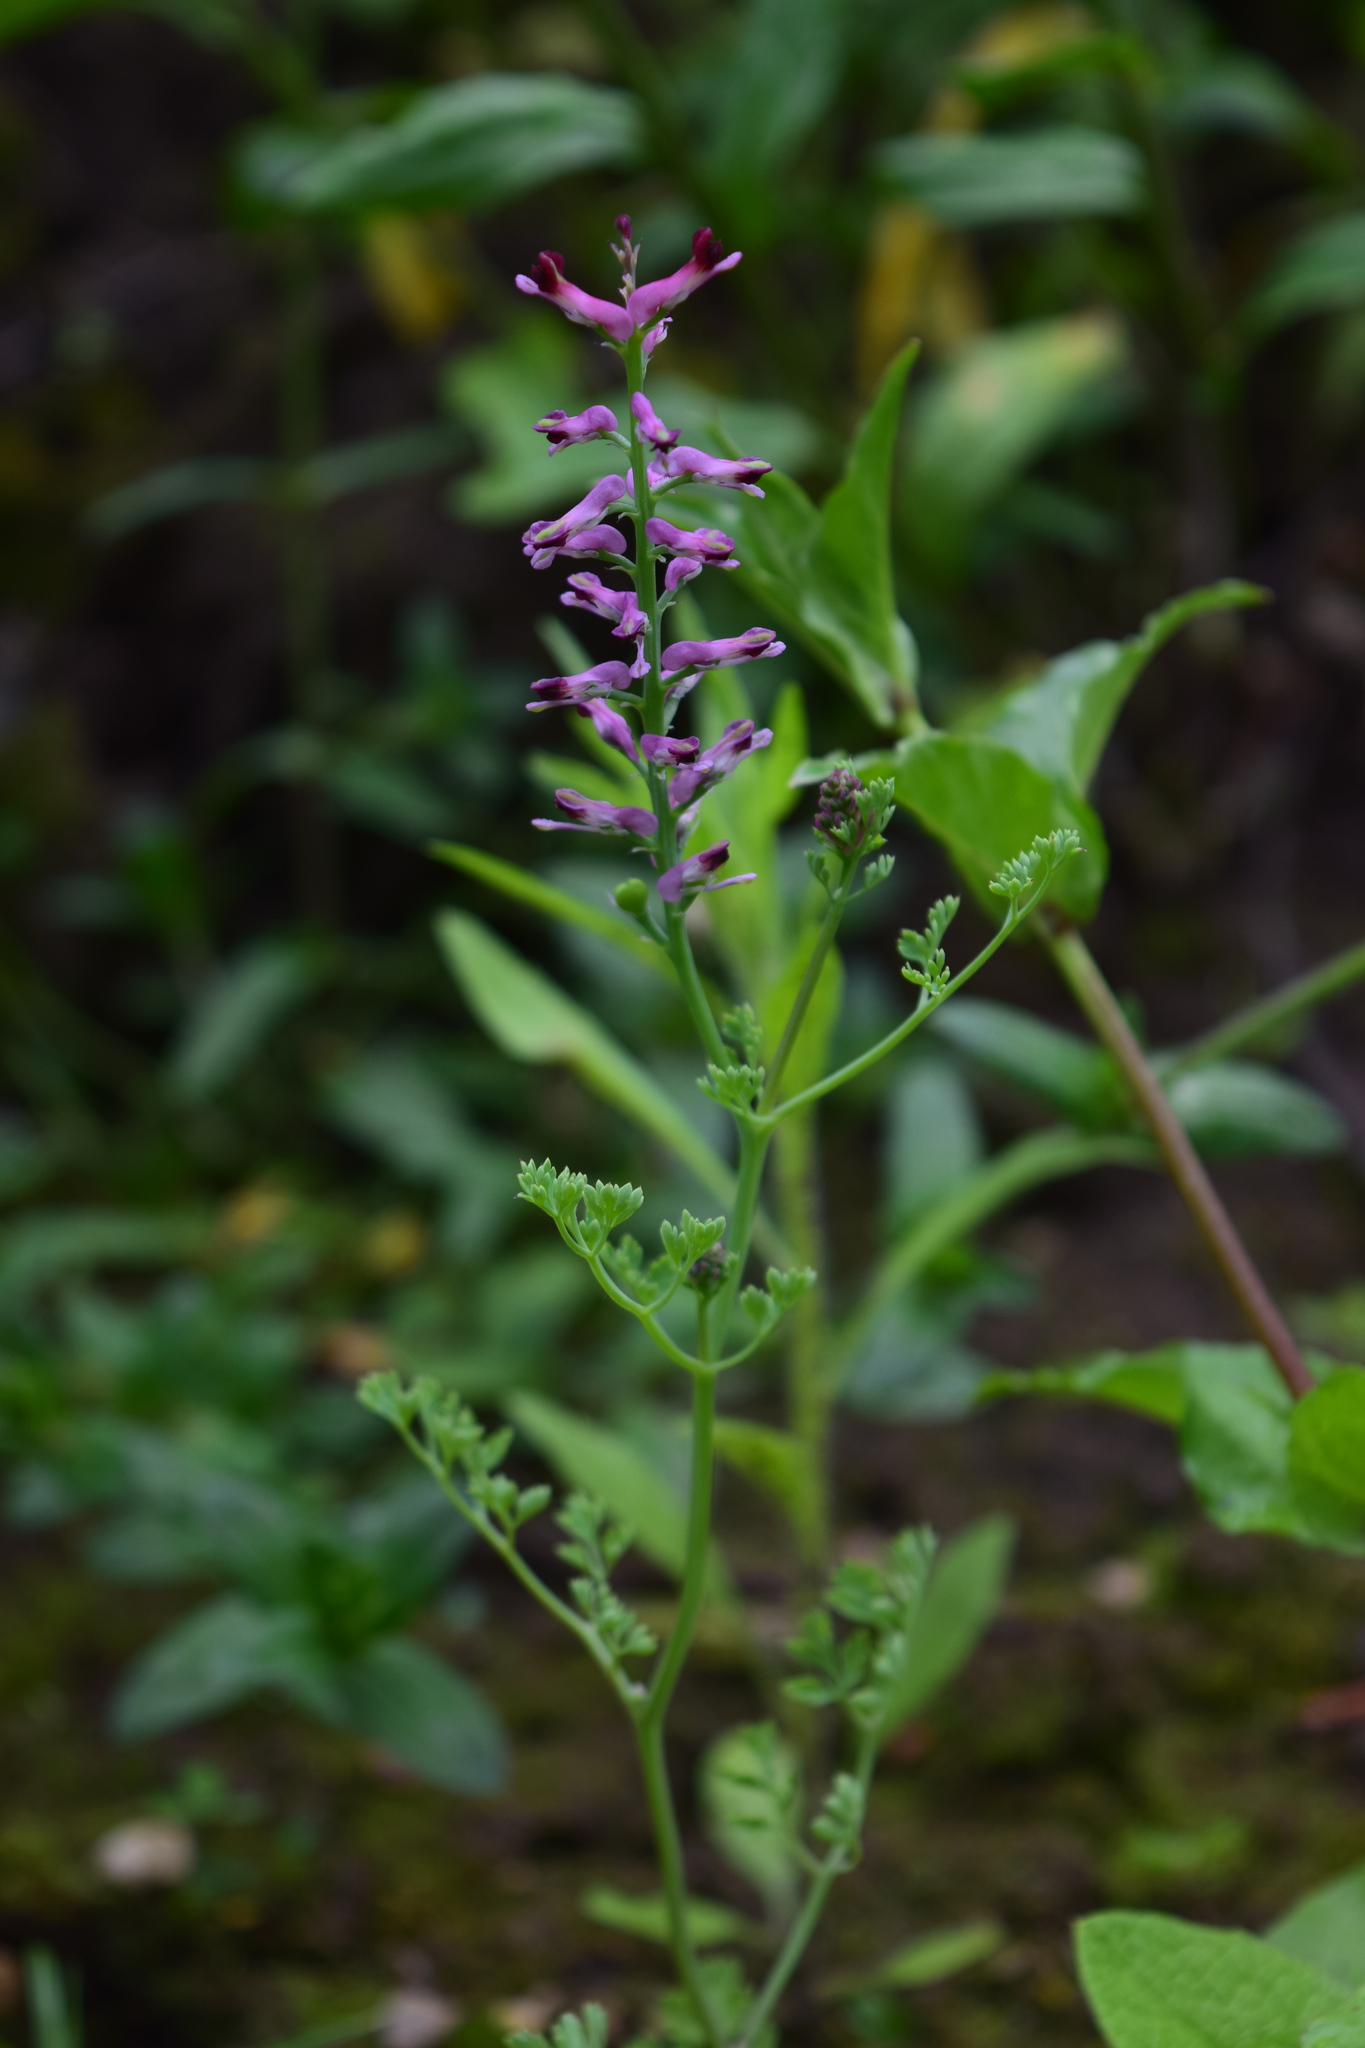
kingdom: Plantae
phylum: Tracheophyta
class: Magnoliopsida
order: Ranunculales
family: Papaveraceae
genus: Fumaria
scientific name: Fumaria officinalis
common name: Common fumitory
